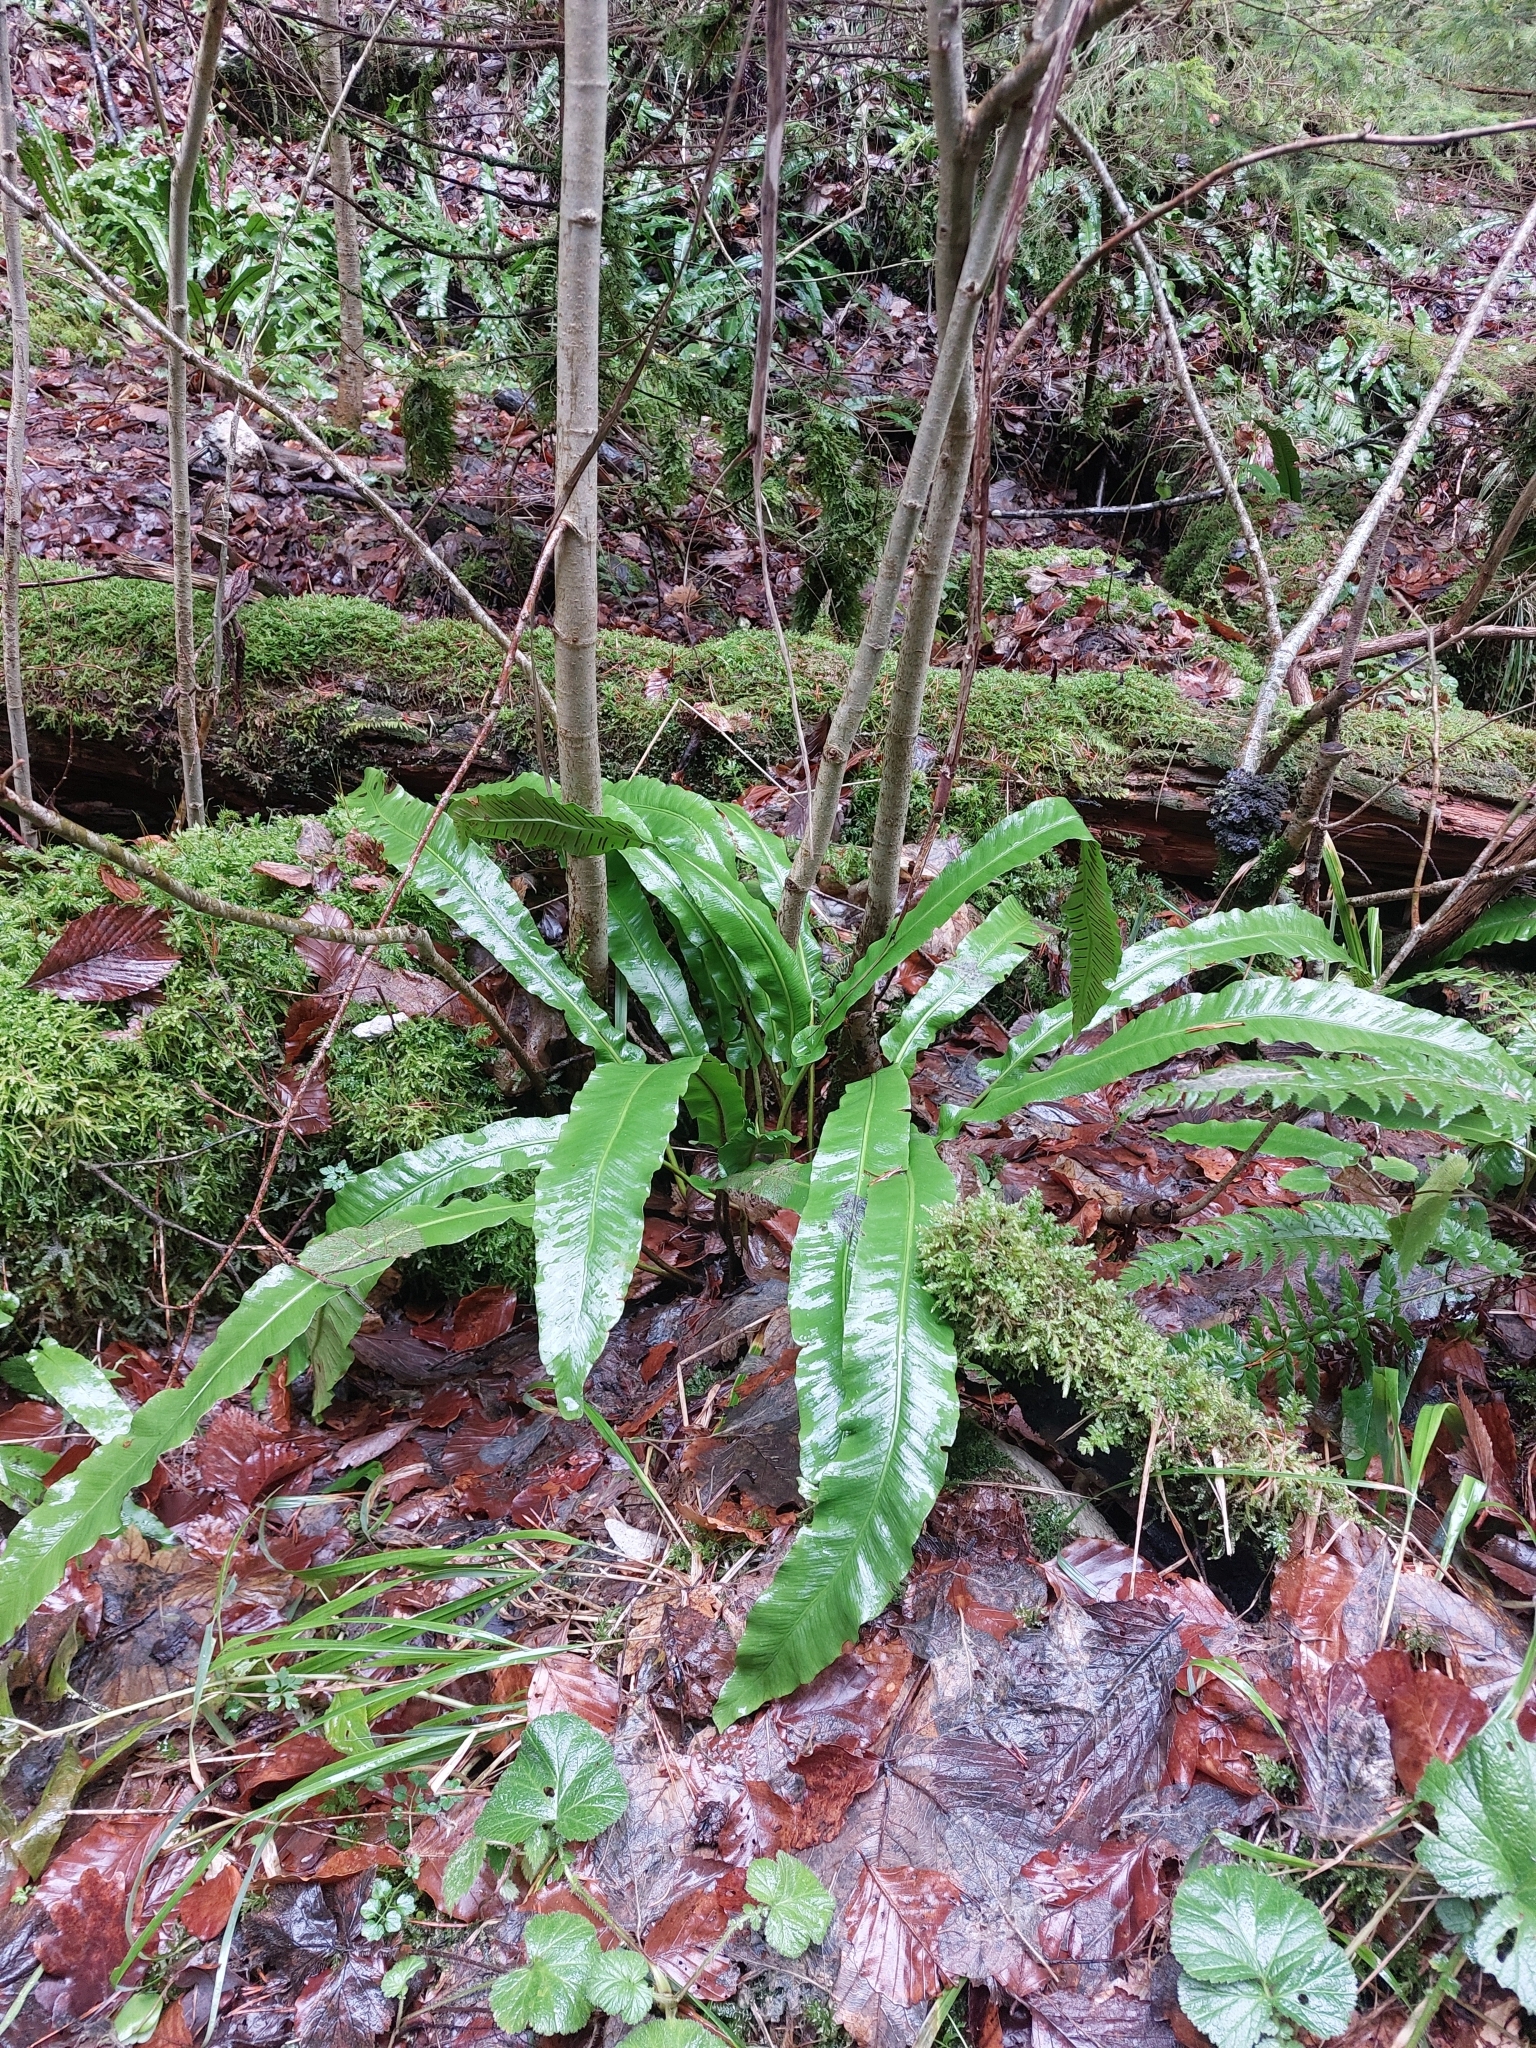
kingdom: Plantae
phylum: Tracheophyta
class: Polypodiopsida
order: Polypodiales
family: Aspleniaceae
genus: Asplenium
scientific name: Asplenium scolopendrium
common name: Hart's-tongue fern
